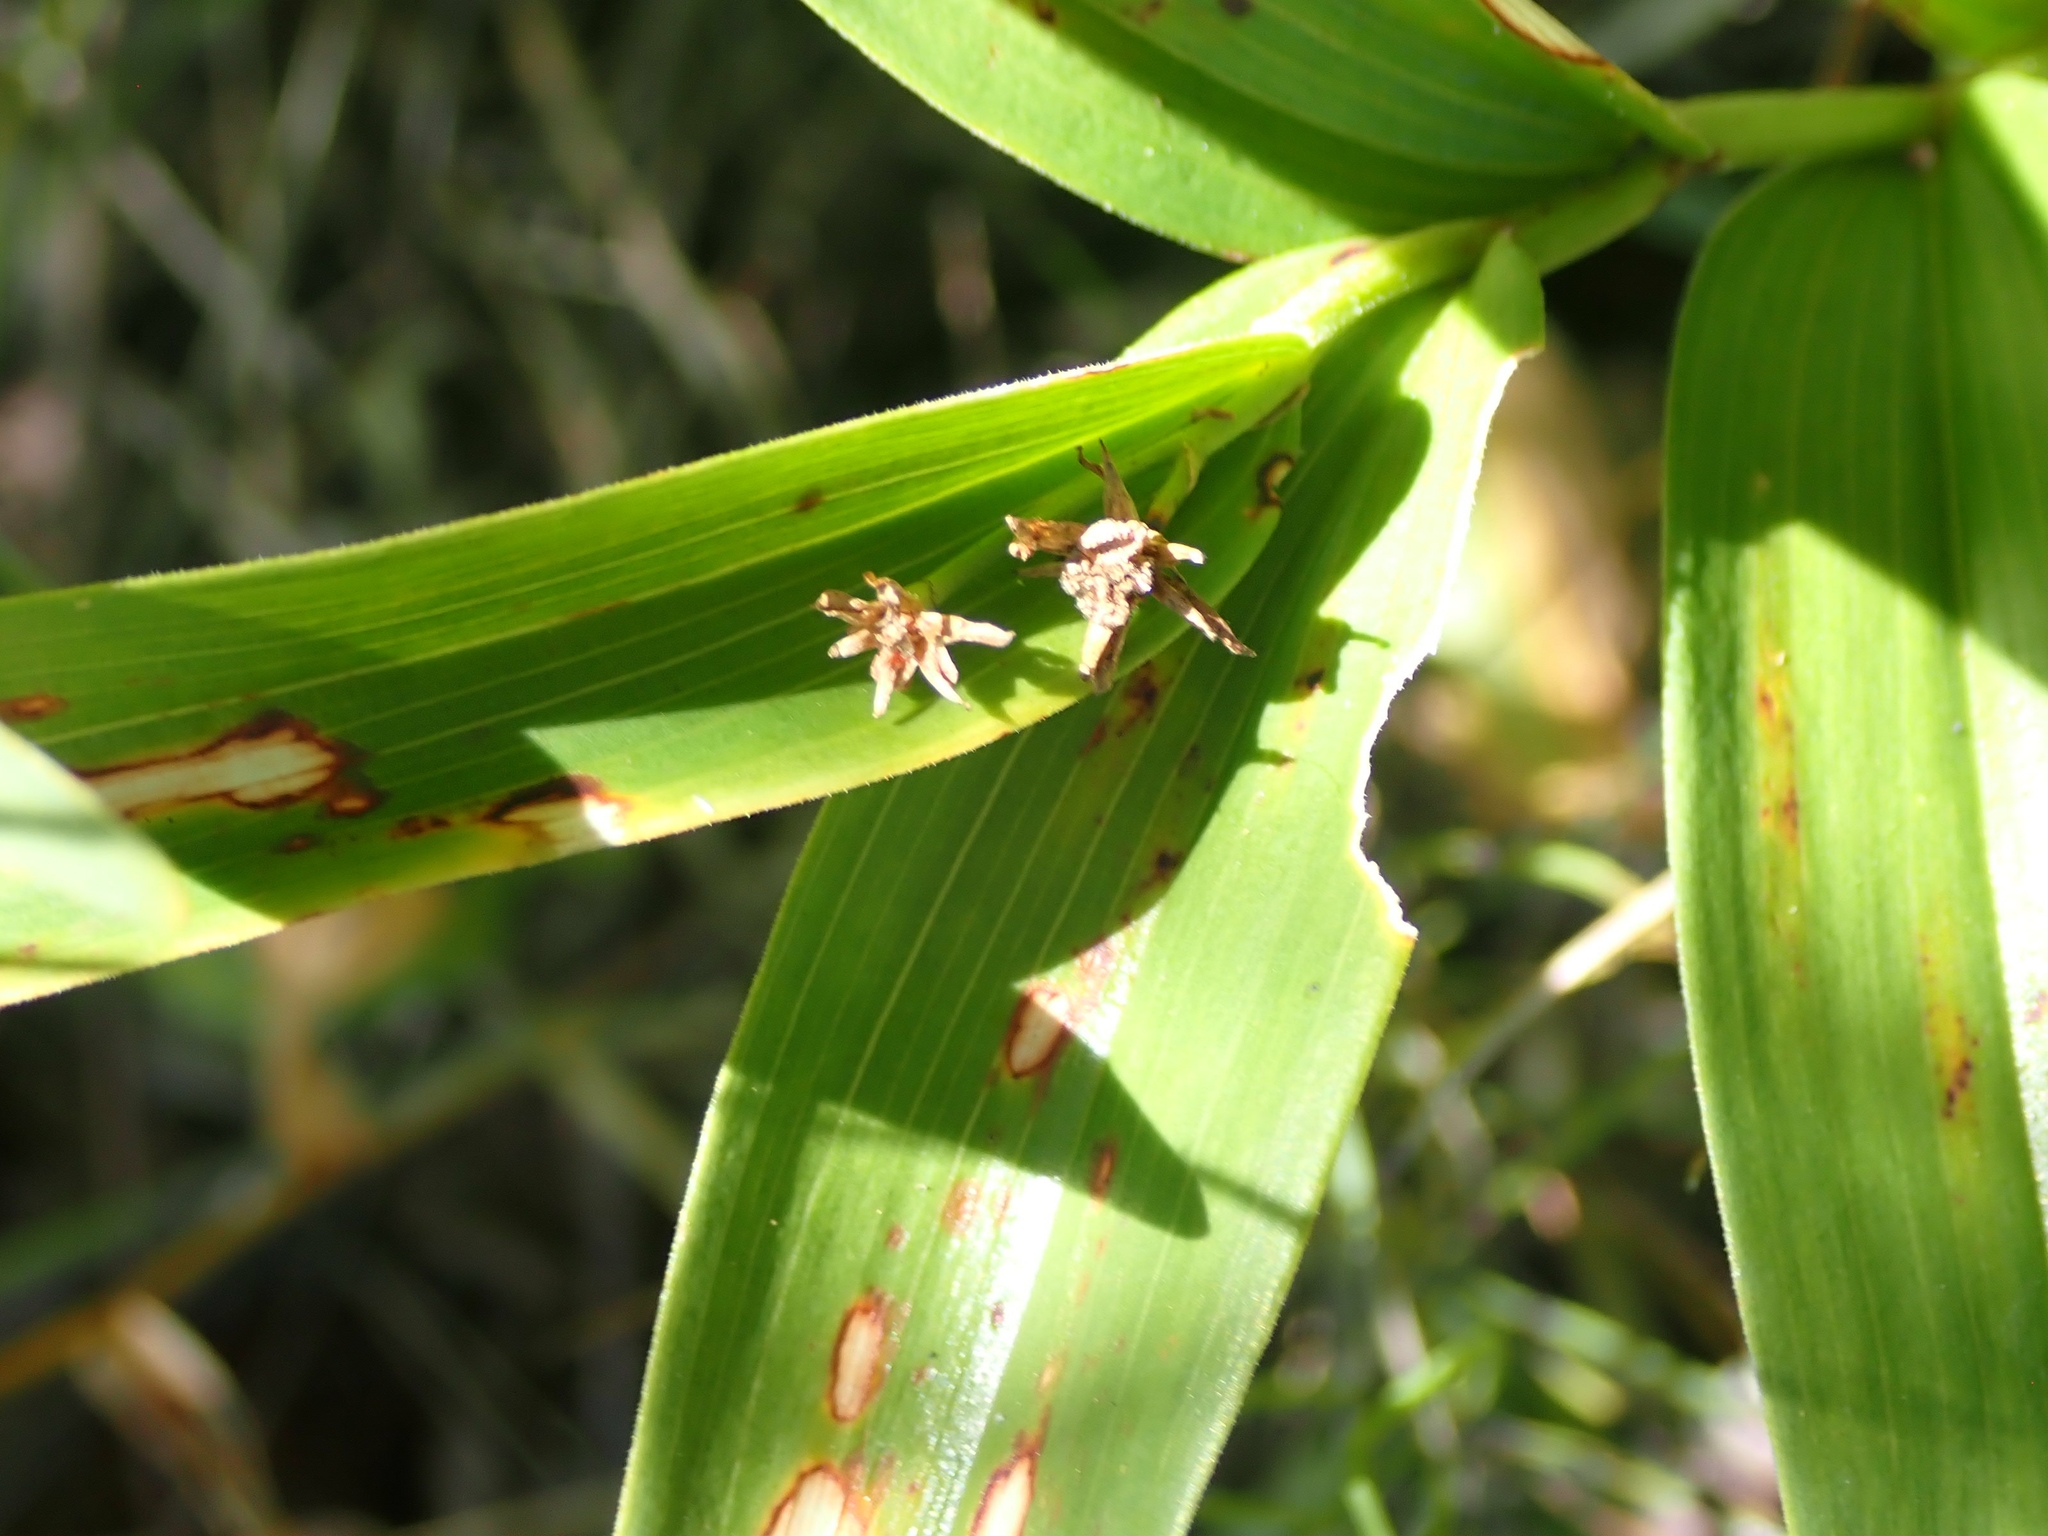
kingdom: Plantae
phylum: Tracheophyta
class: Liliopsida
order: Asparagales
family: Asparagaceae
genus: Maianthemum
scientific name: Maianthemum stellatum
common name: Little false solomon's seal
